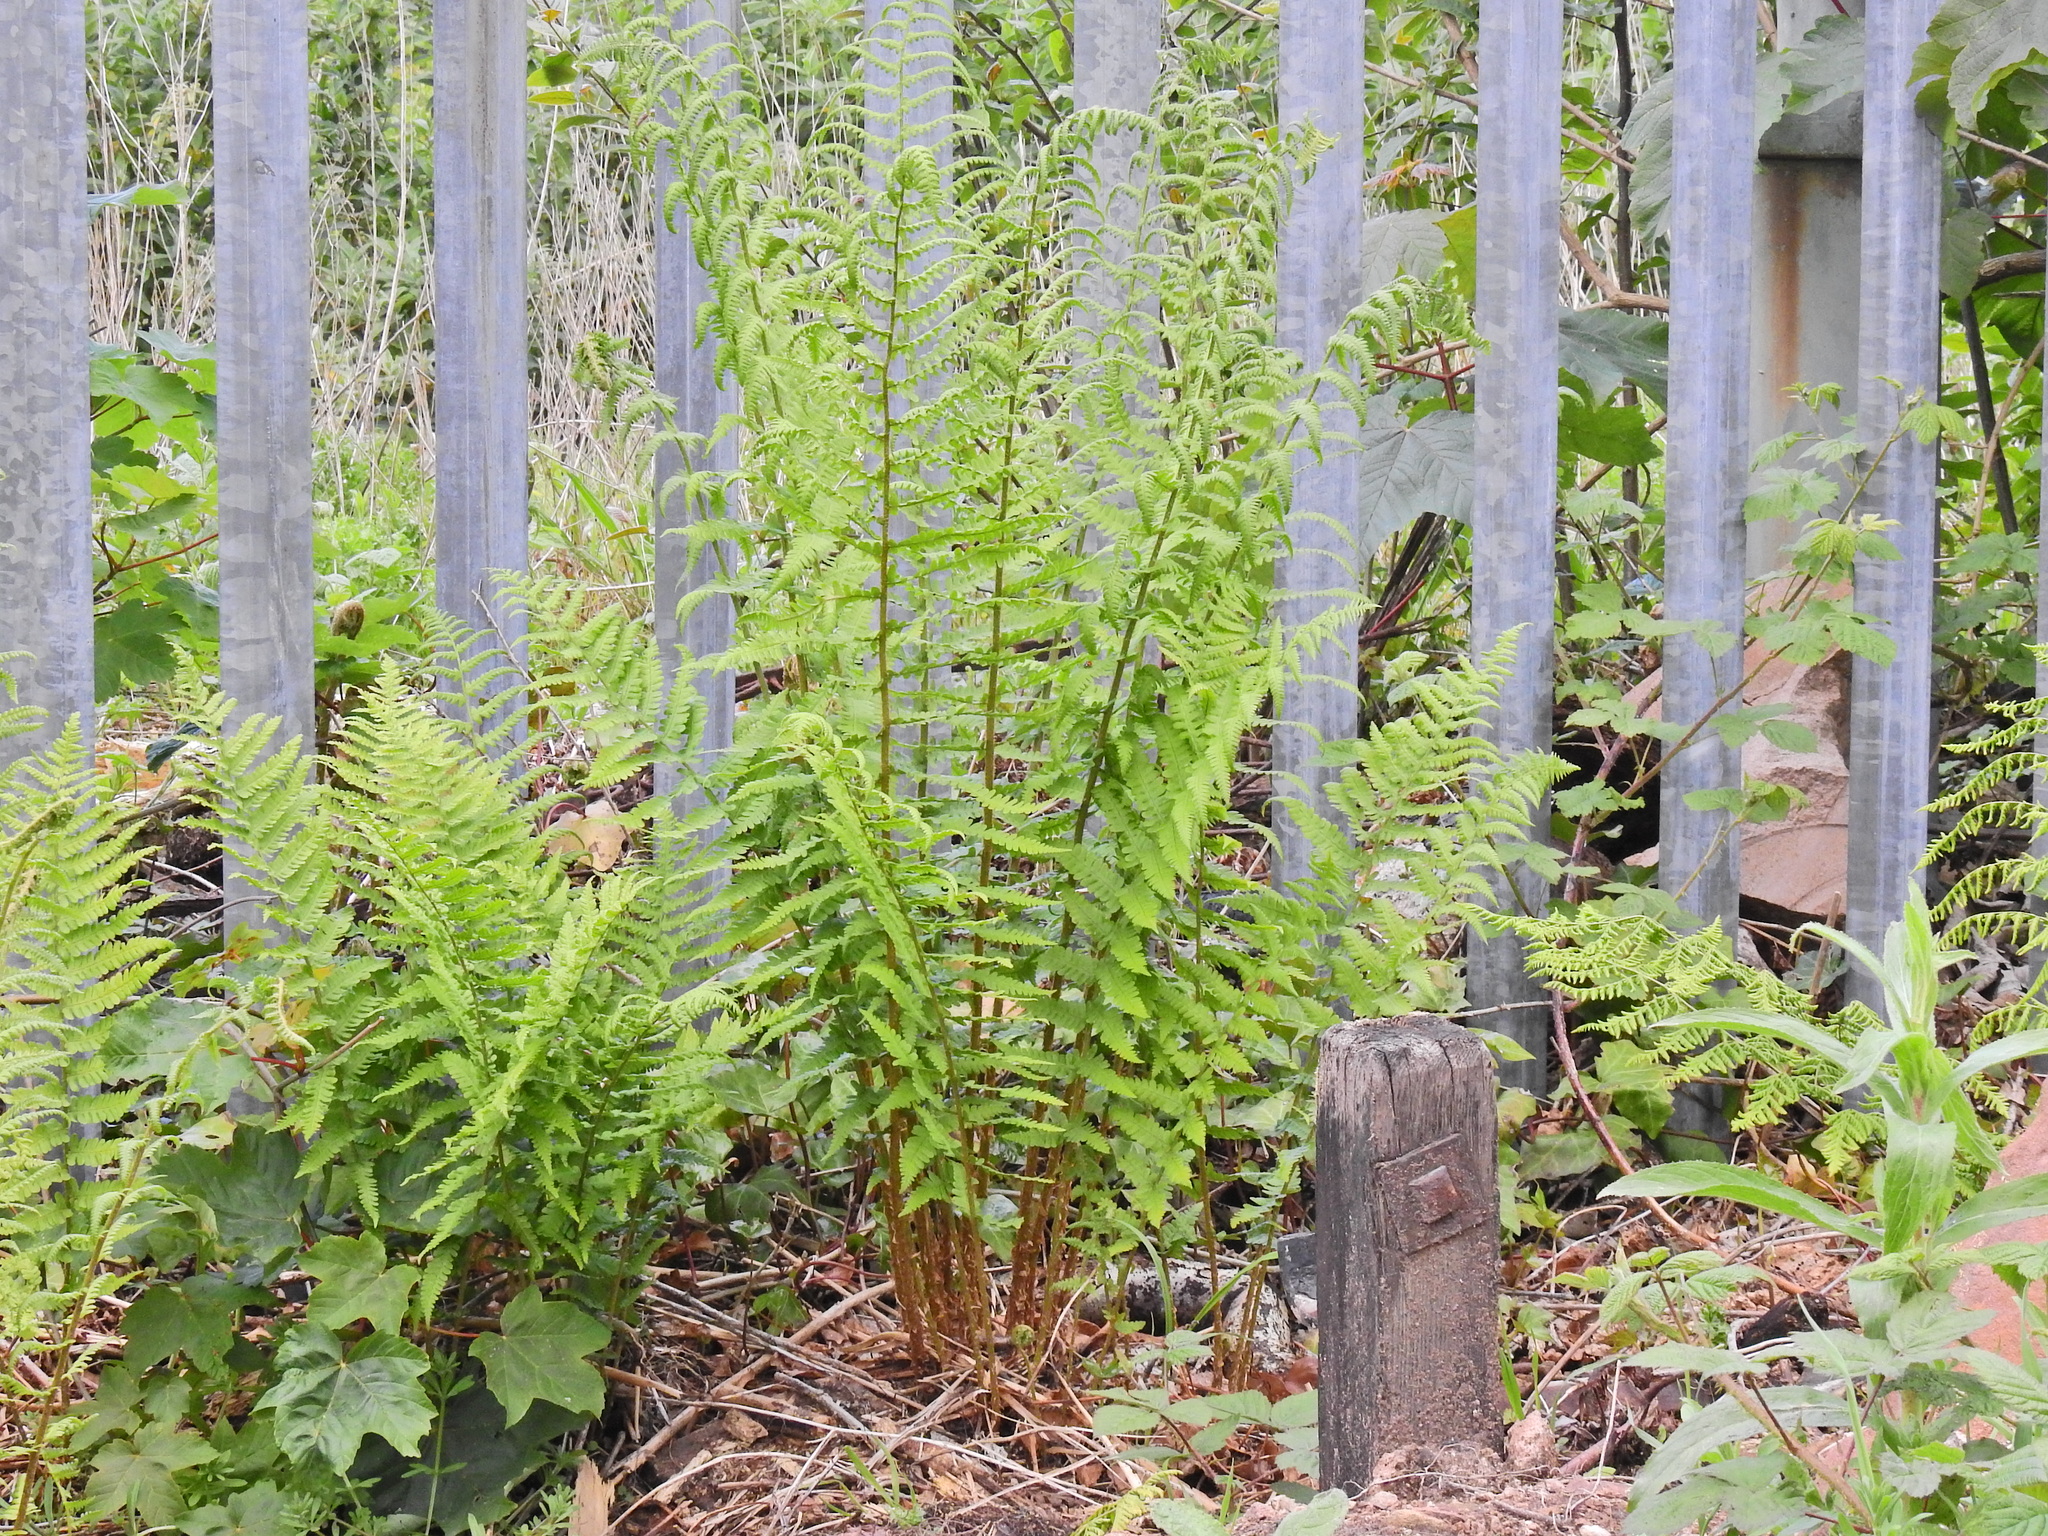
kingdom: Plantae
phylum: Tracheophyta
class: Polypodiopsida
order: Polypodiales
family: Dryopteridaceae
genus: Dryopteris
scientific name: Dryopteris filix-mas
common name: Male fern
